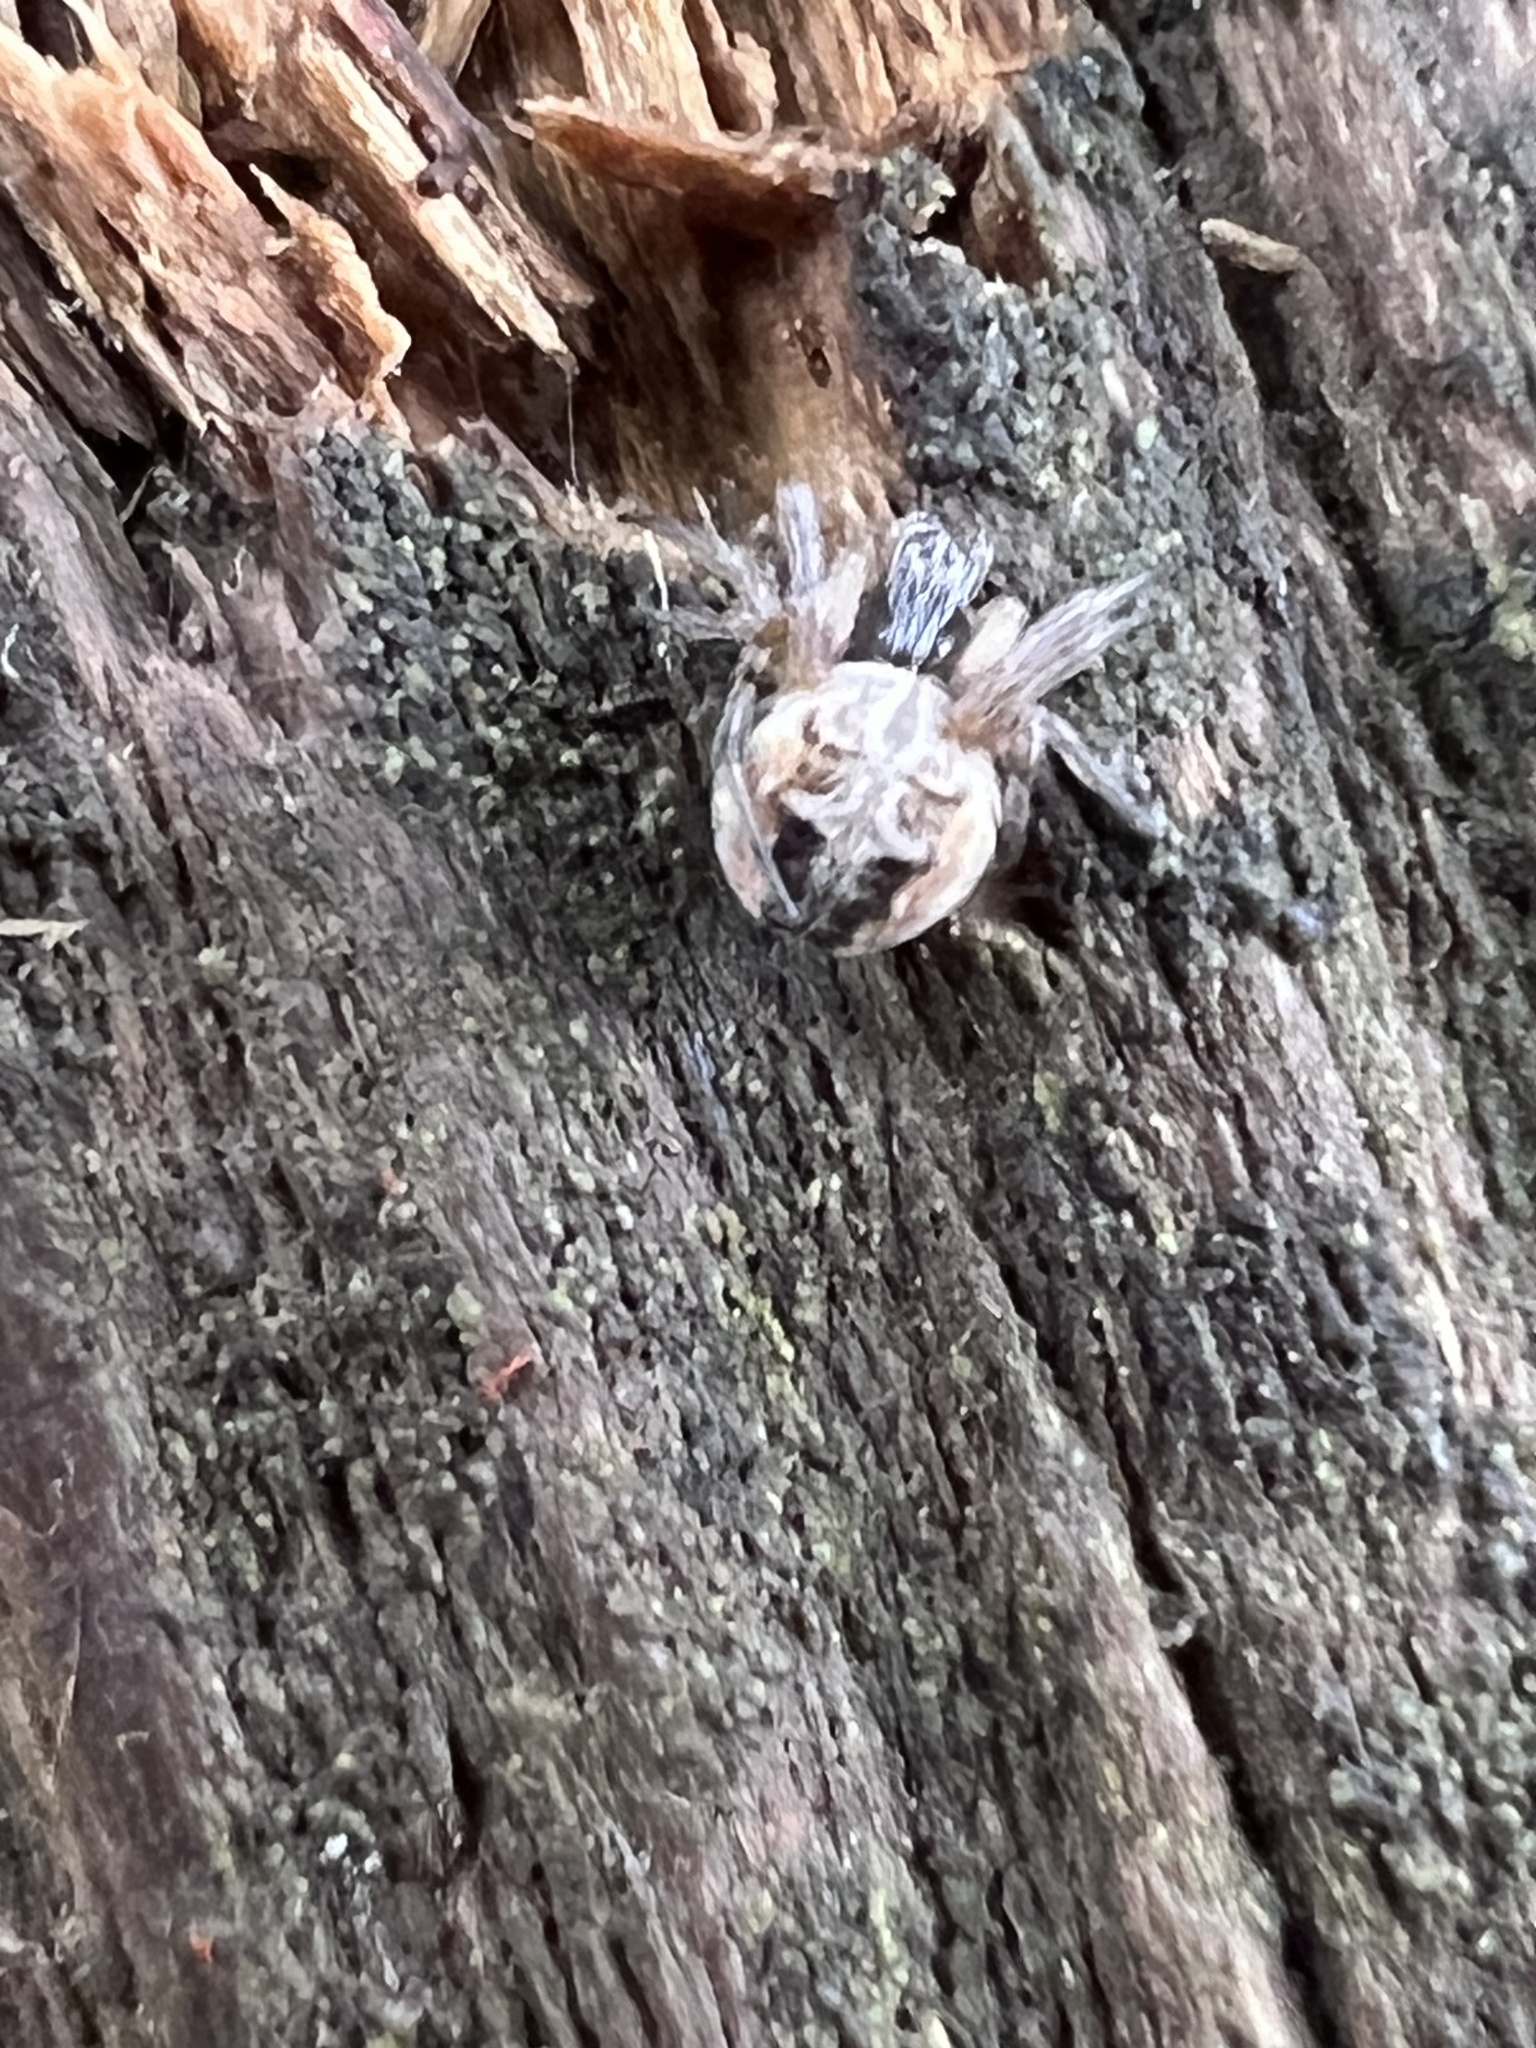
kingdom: Animalia
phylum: Arthropoda
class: Arachnida
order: Araneae
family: Araneidae
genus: Metepeira
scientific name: Metepeira labyrinthea
